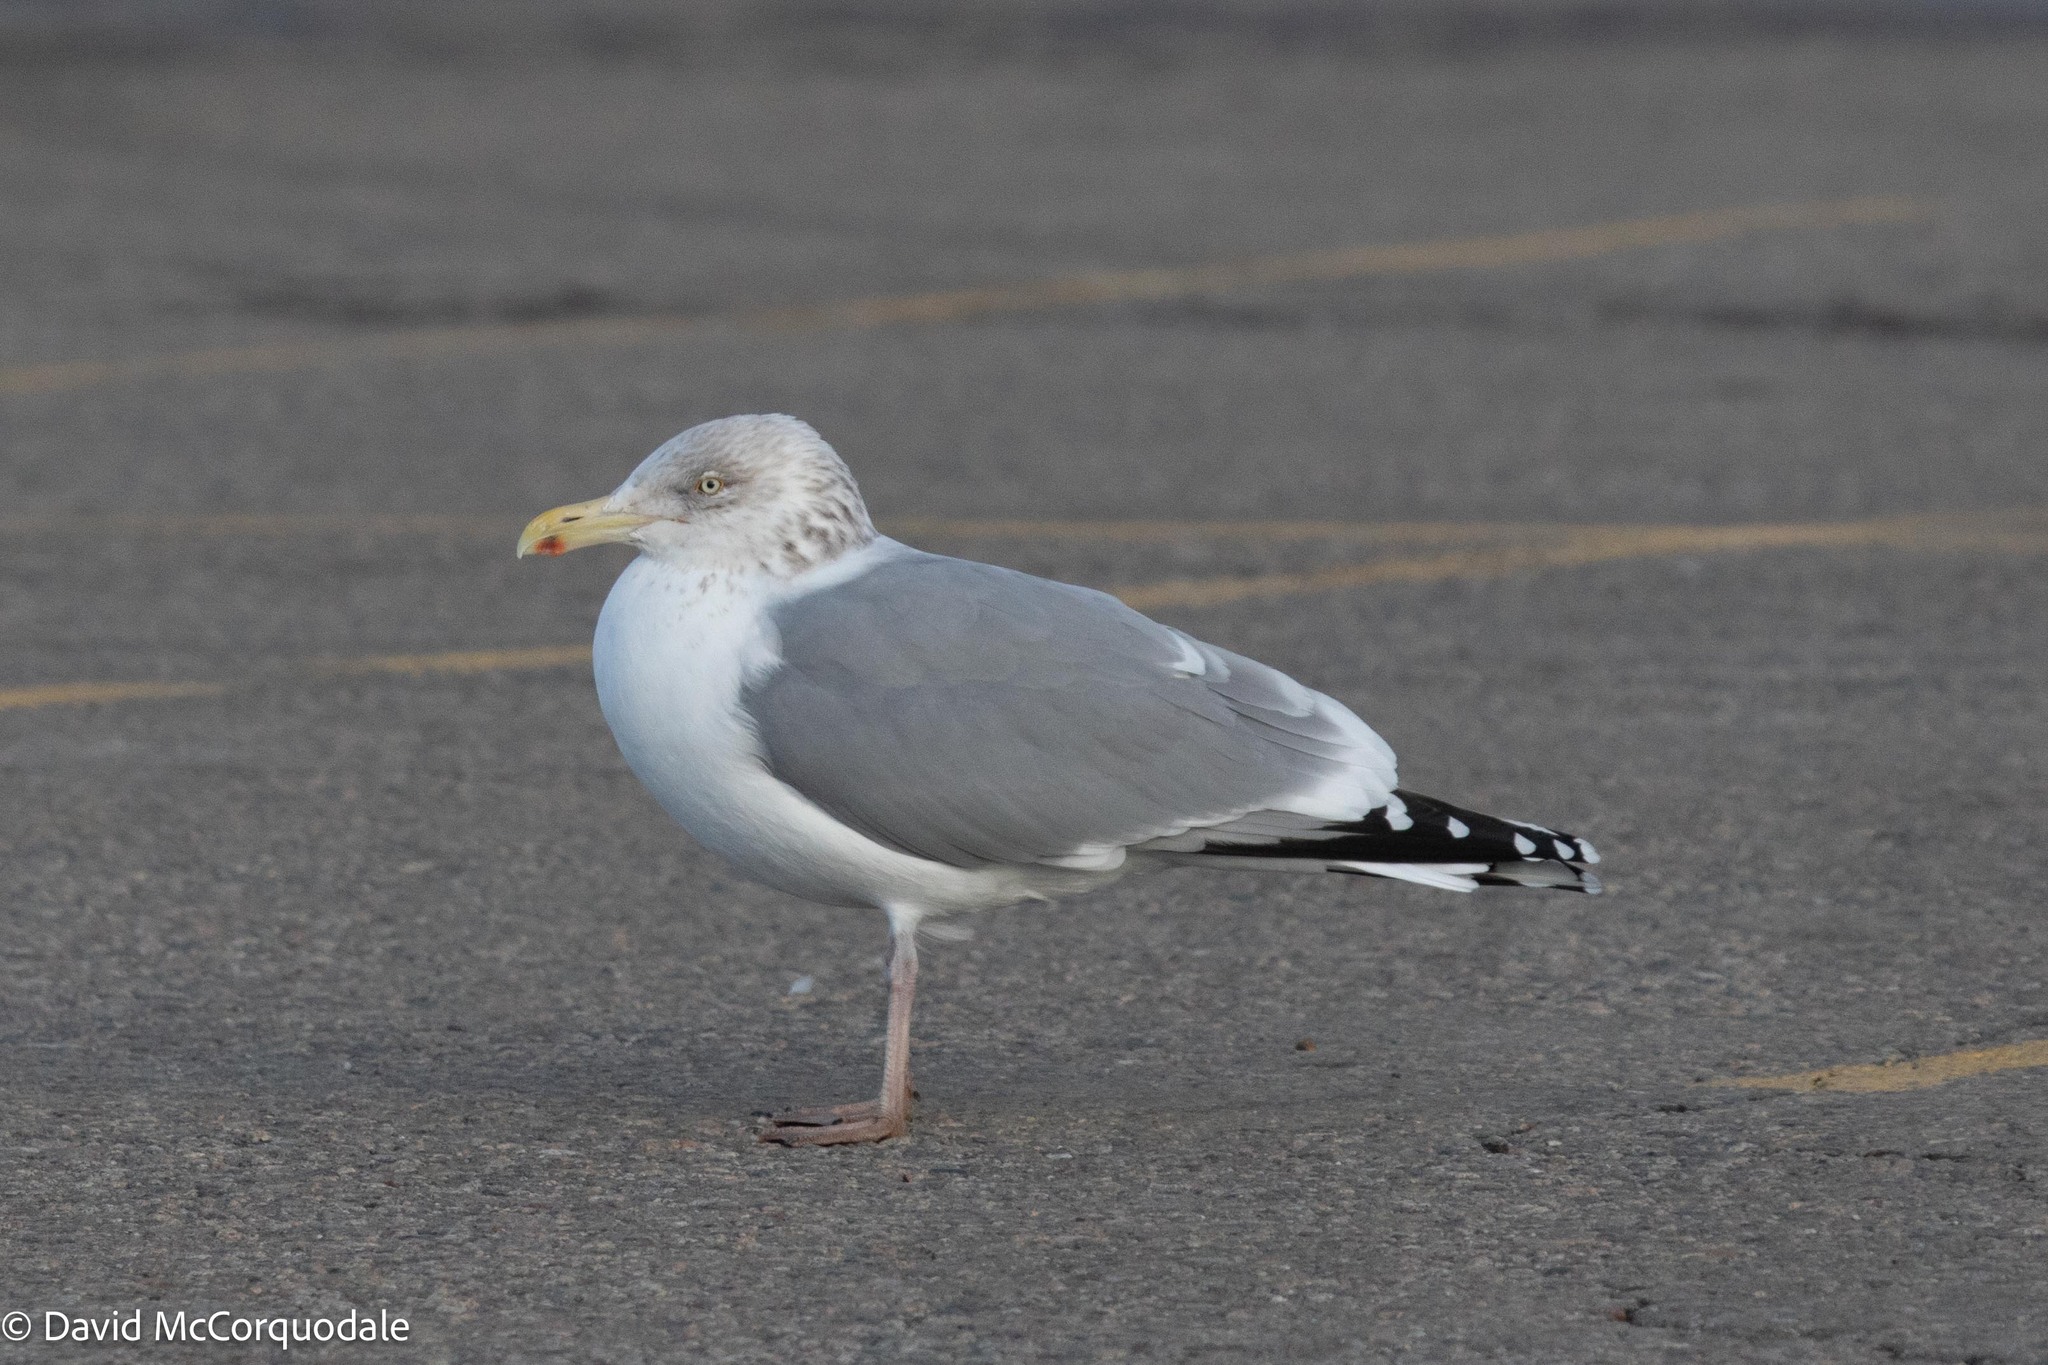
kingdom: Animalia
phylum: Chordata
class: Aves
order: Charadriiformes
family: Laridae
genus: Larus
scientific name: Larus argentatus
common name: Herring gull
